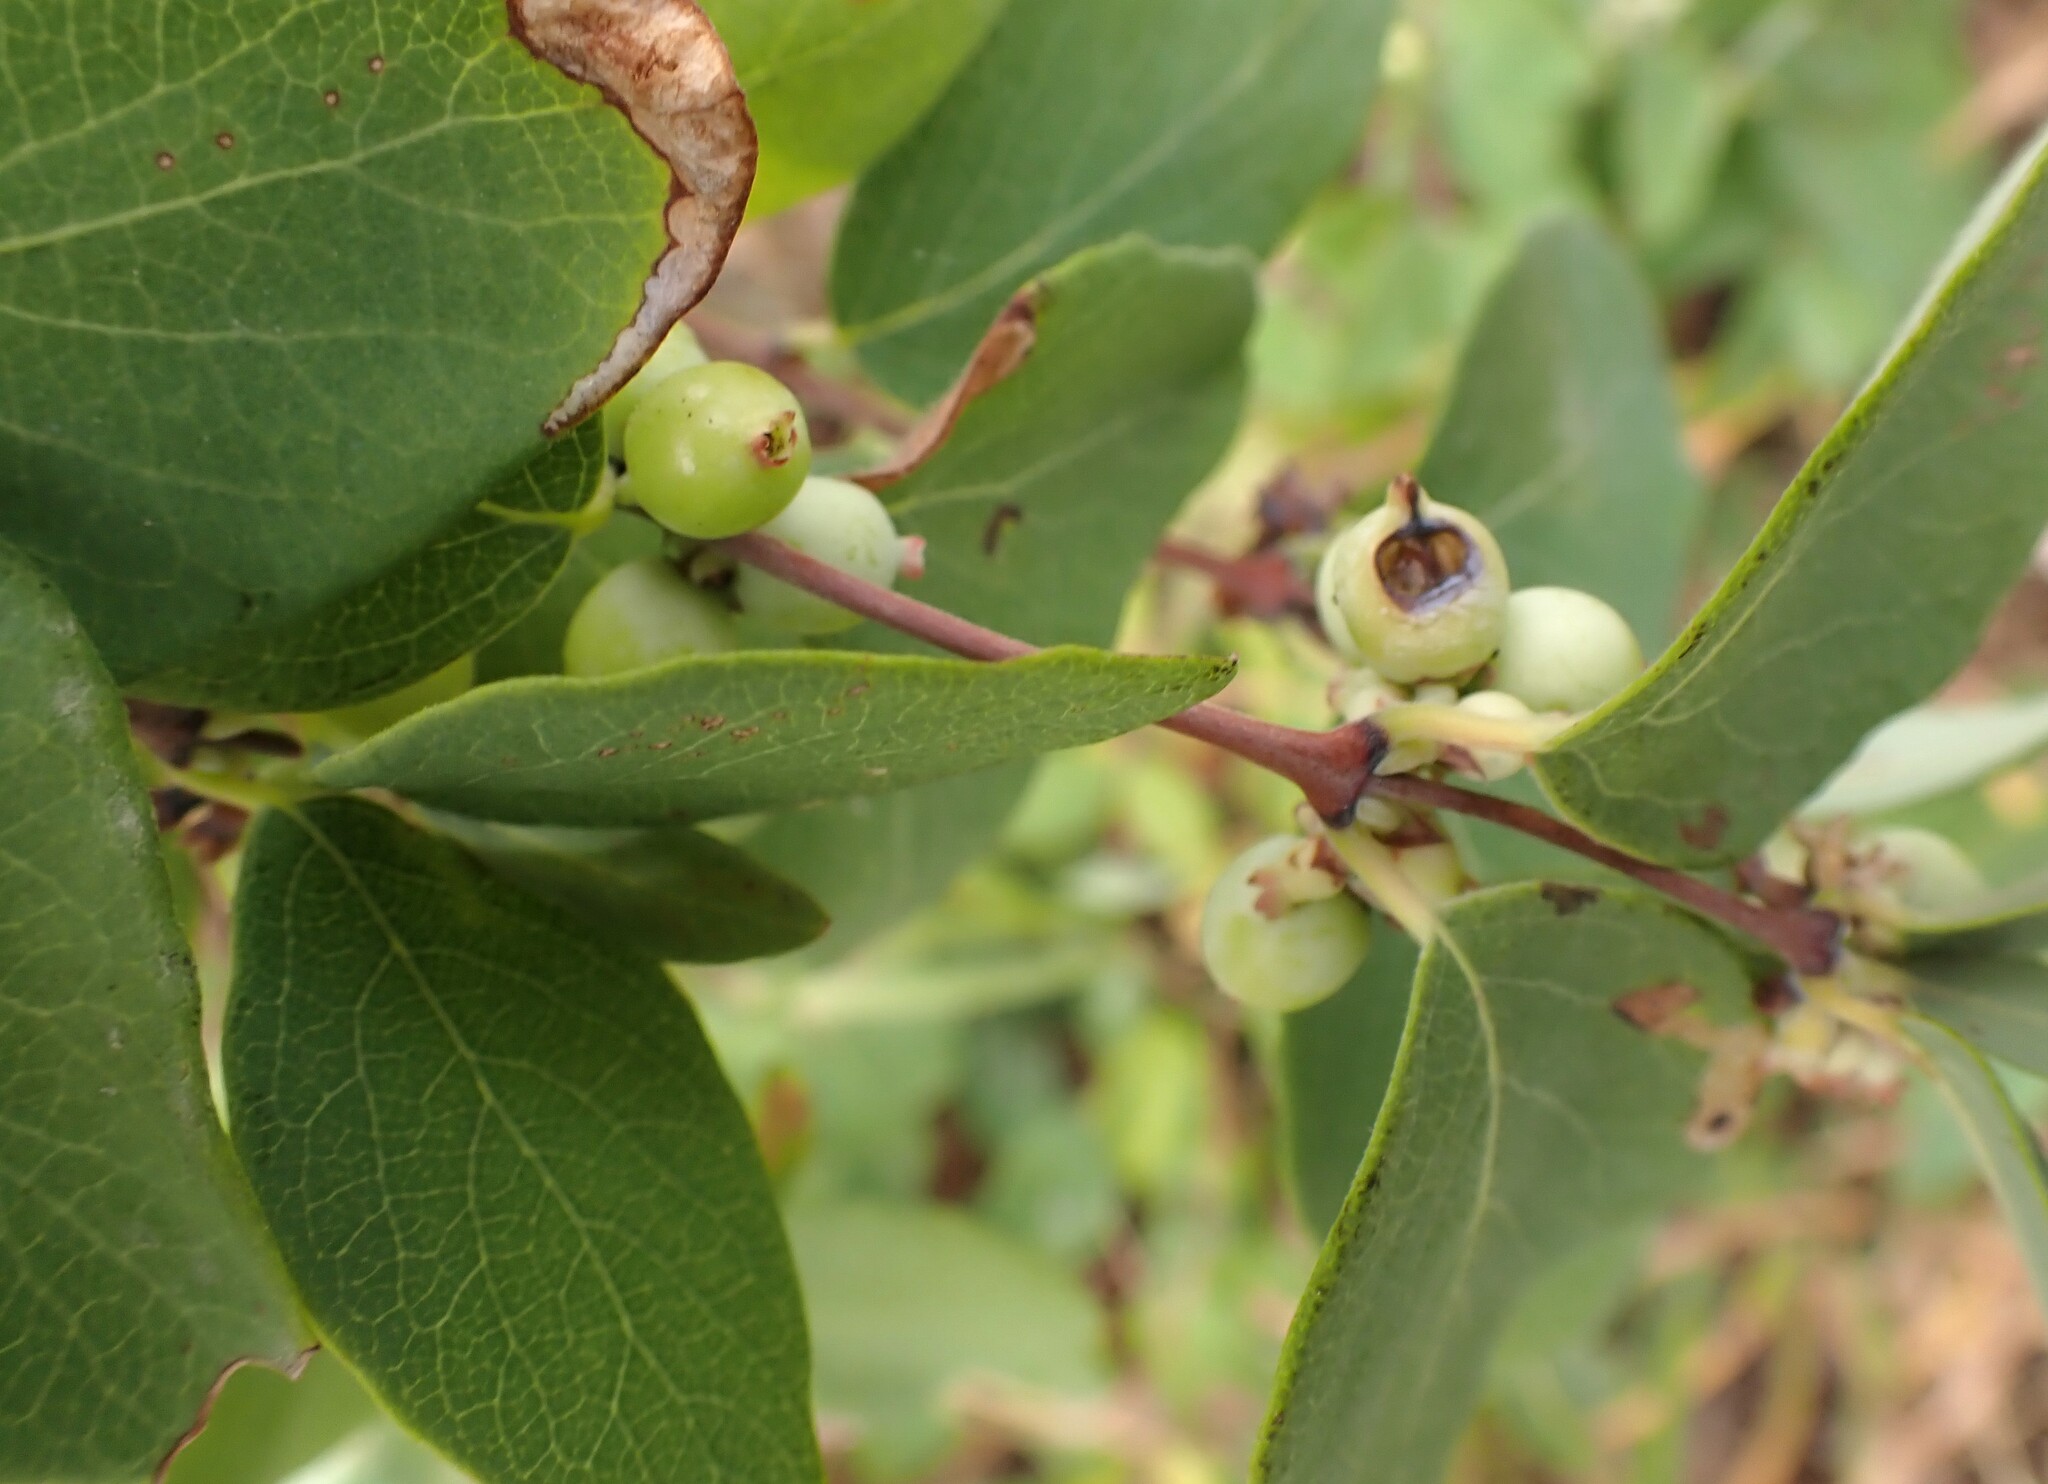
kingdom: Plantae
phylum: Tracheophyta
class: Magnoliopsida
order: Dipsacales
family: Caprifoliaceae
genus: Symphoricarpos
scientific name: Symphoricarpos occidentalis
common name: Wolfberry
